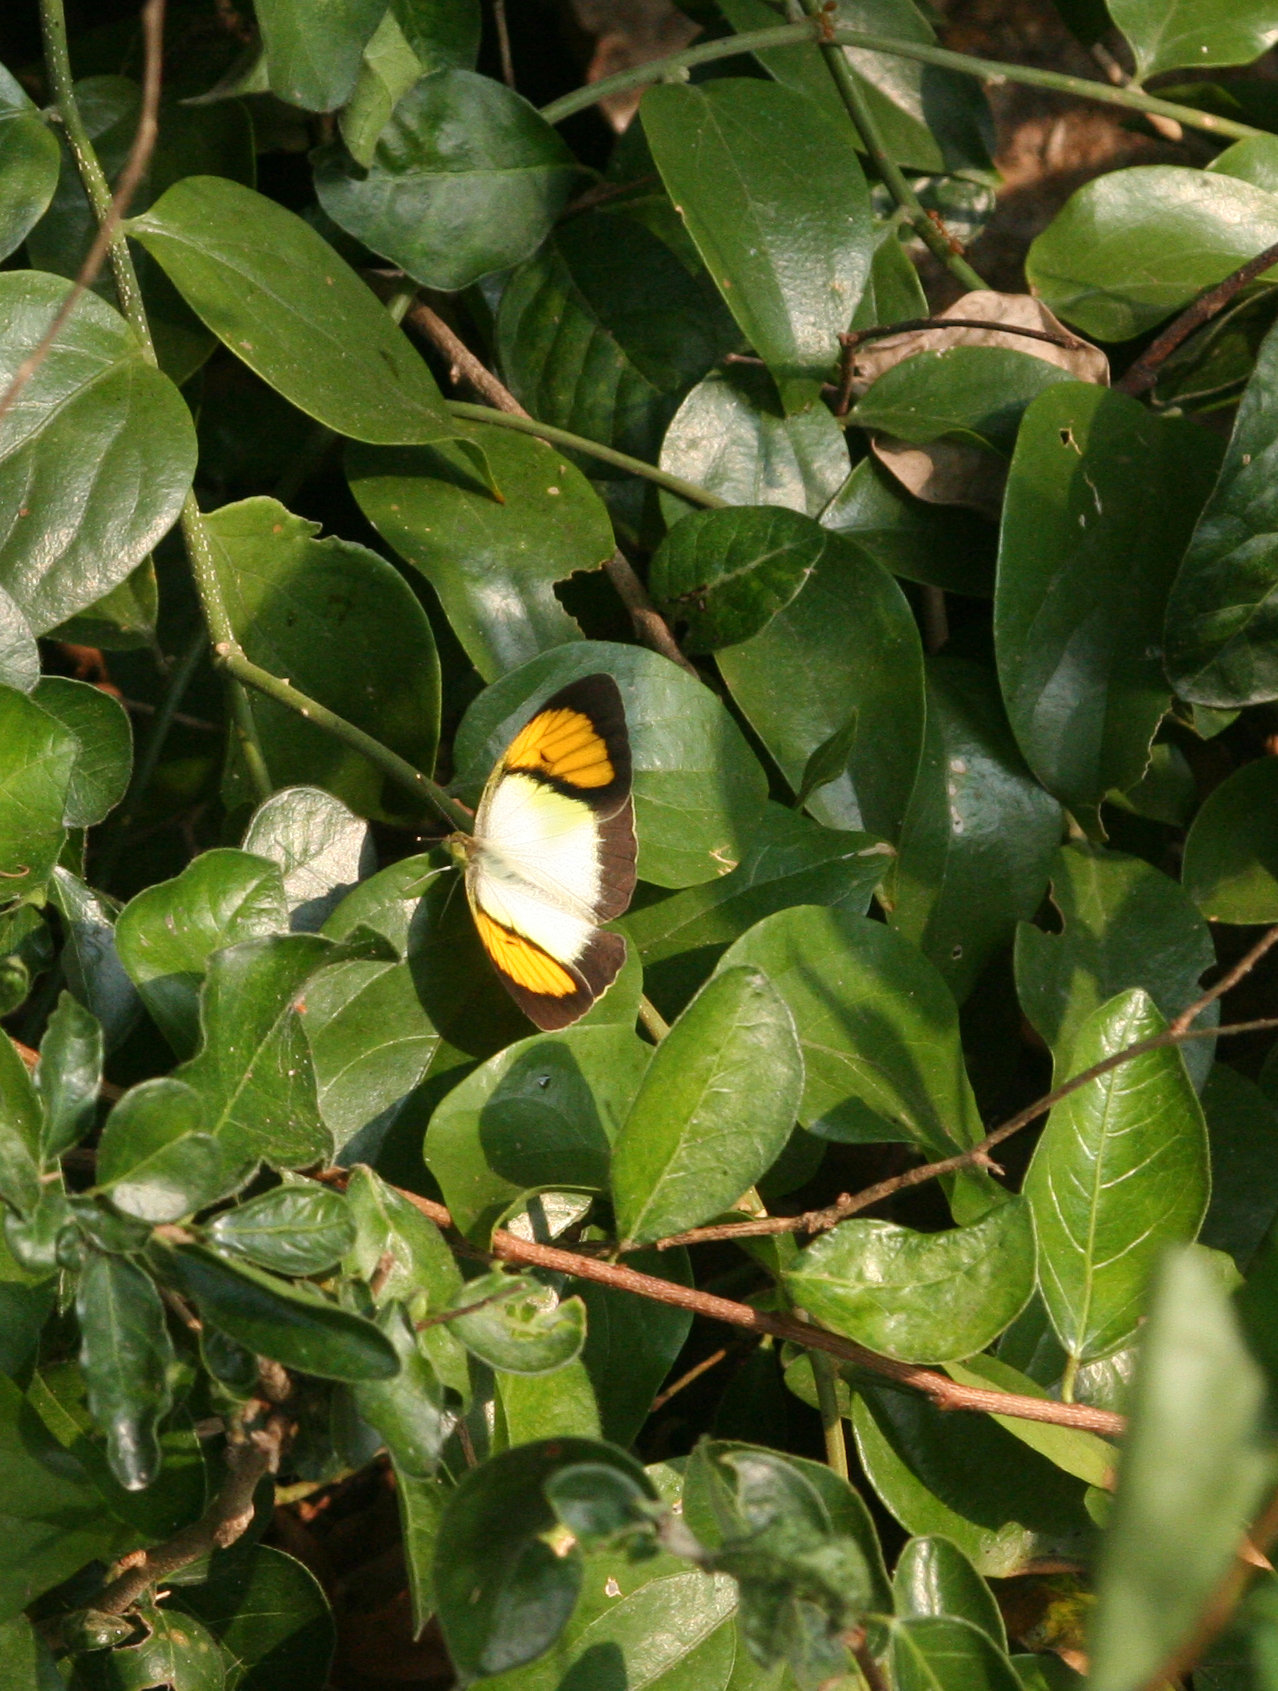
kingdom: Animalia
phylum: Arthropoda
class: Insecta
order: Lepidoptera
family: Pieridae
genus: Ixias
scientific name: Ixias pyrene
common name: Yellow orange tip
